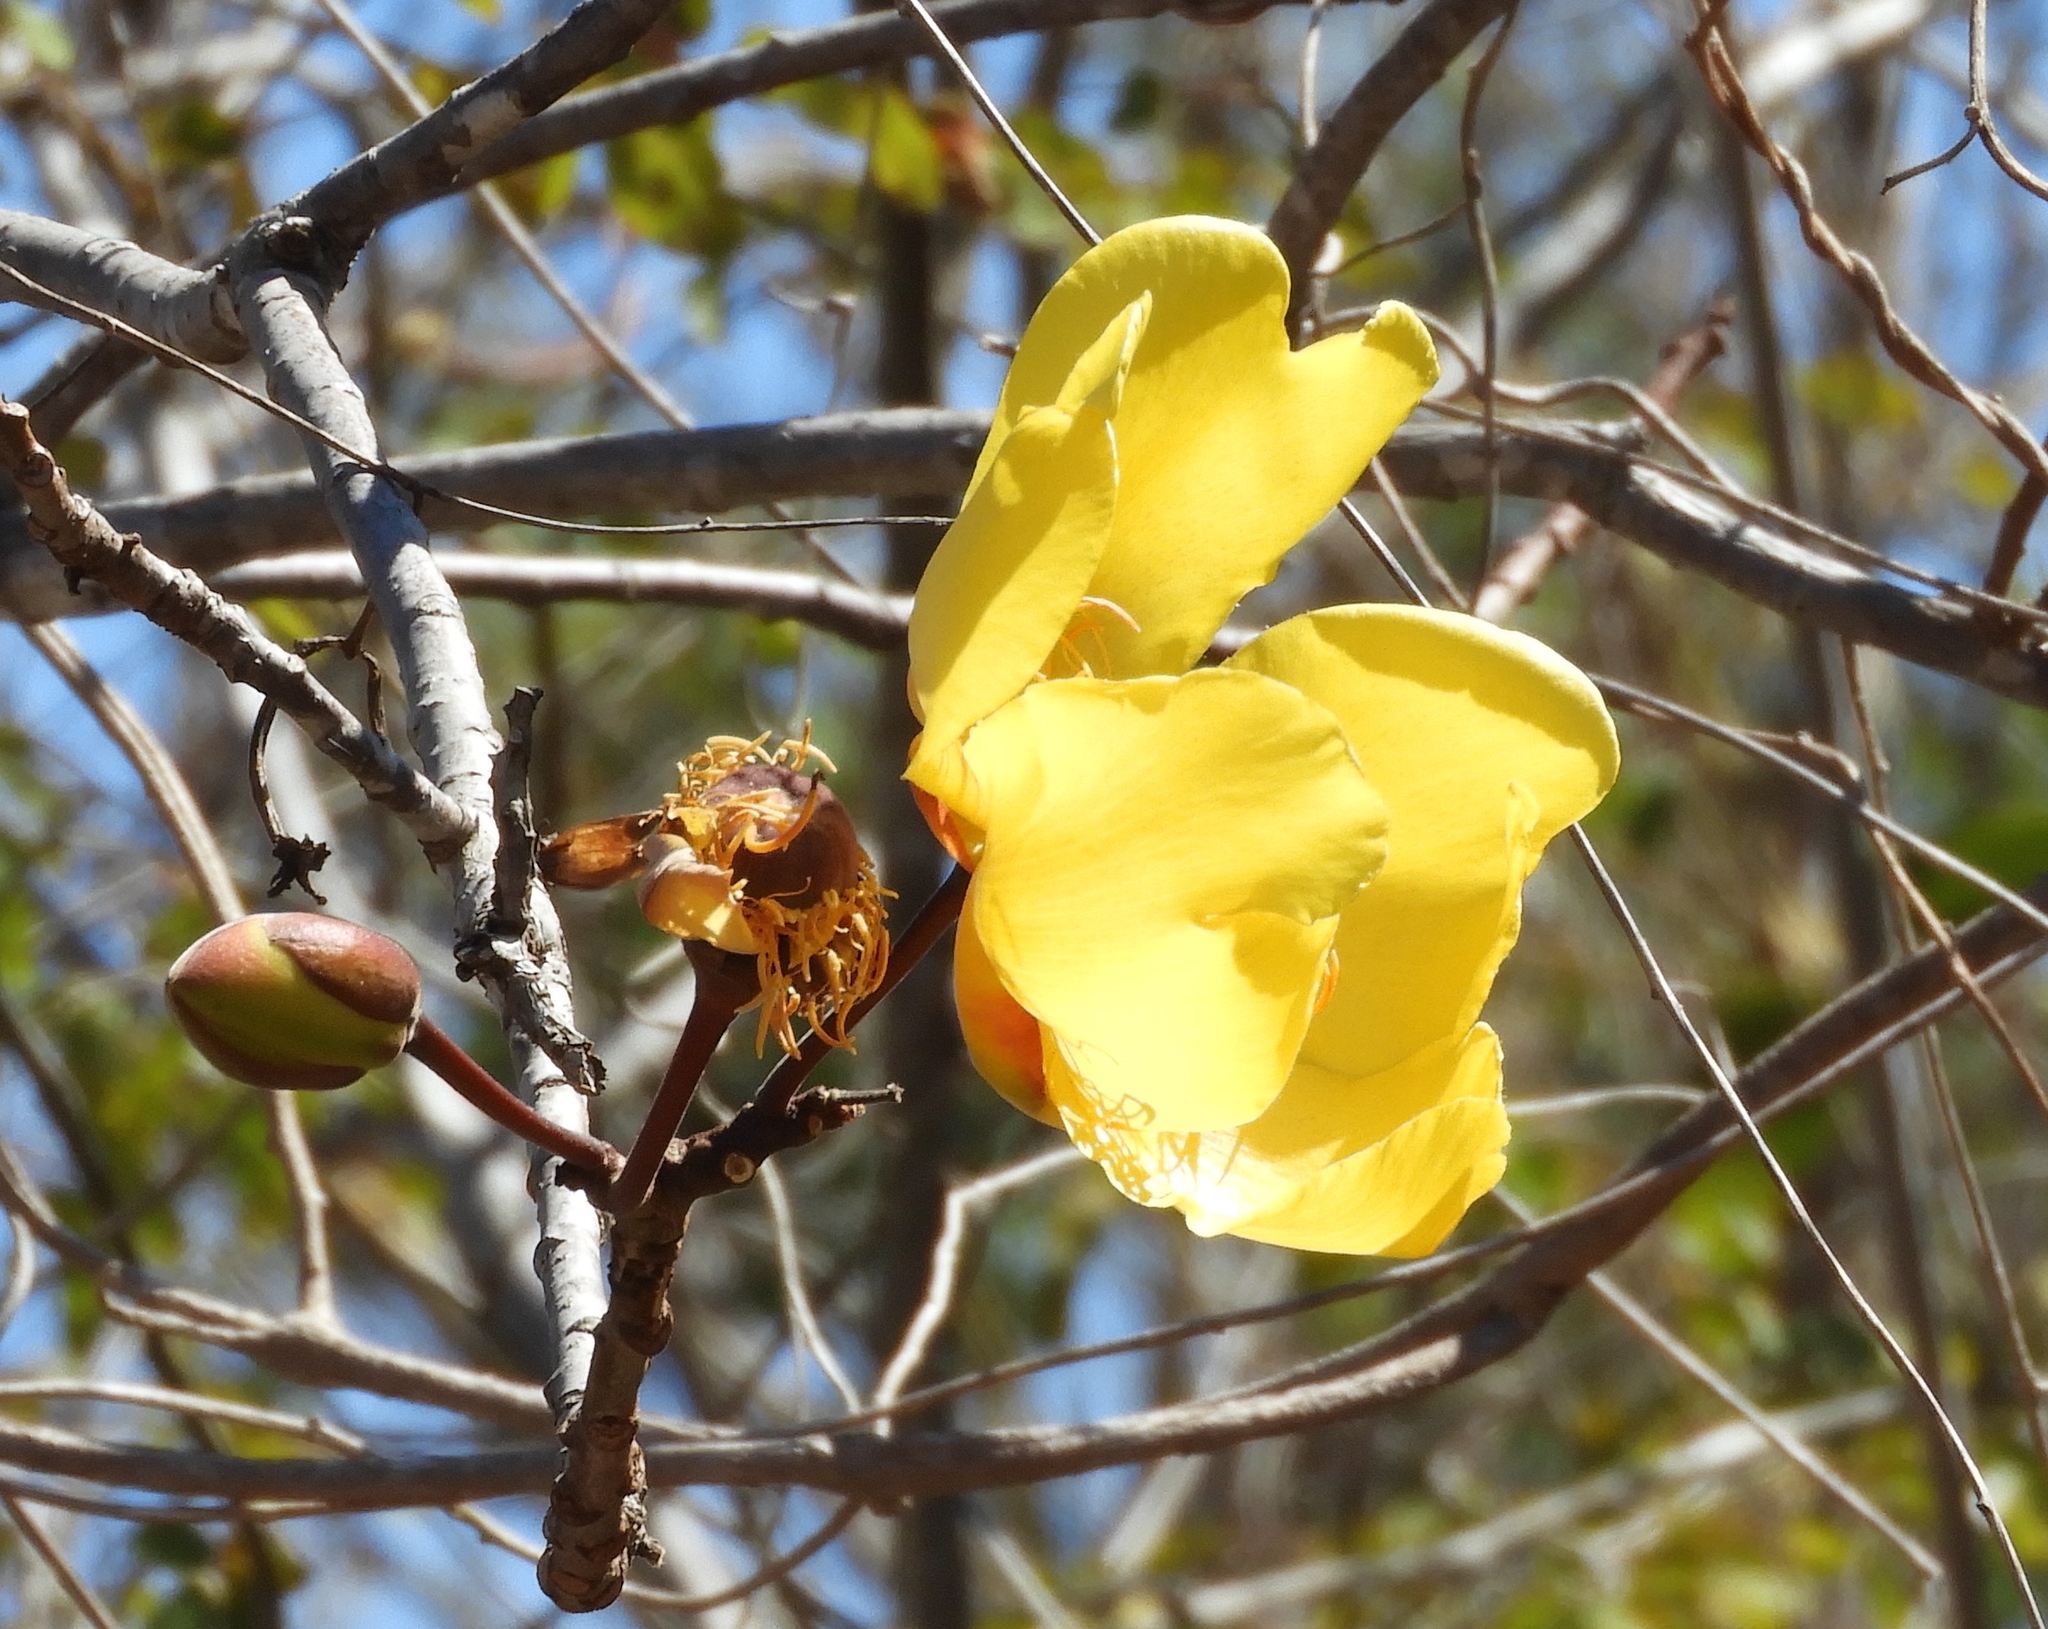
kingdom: Plantae
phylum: Tracheophyta
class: Magnoliopsida
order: Malvales
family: Cochlospermaceae
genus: Cochlospermum
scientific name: Cochlospermum vitifolium
